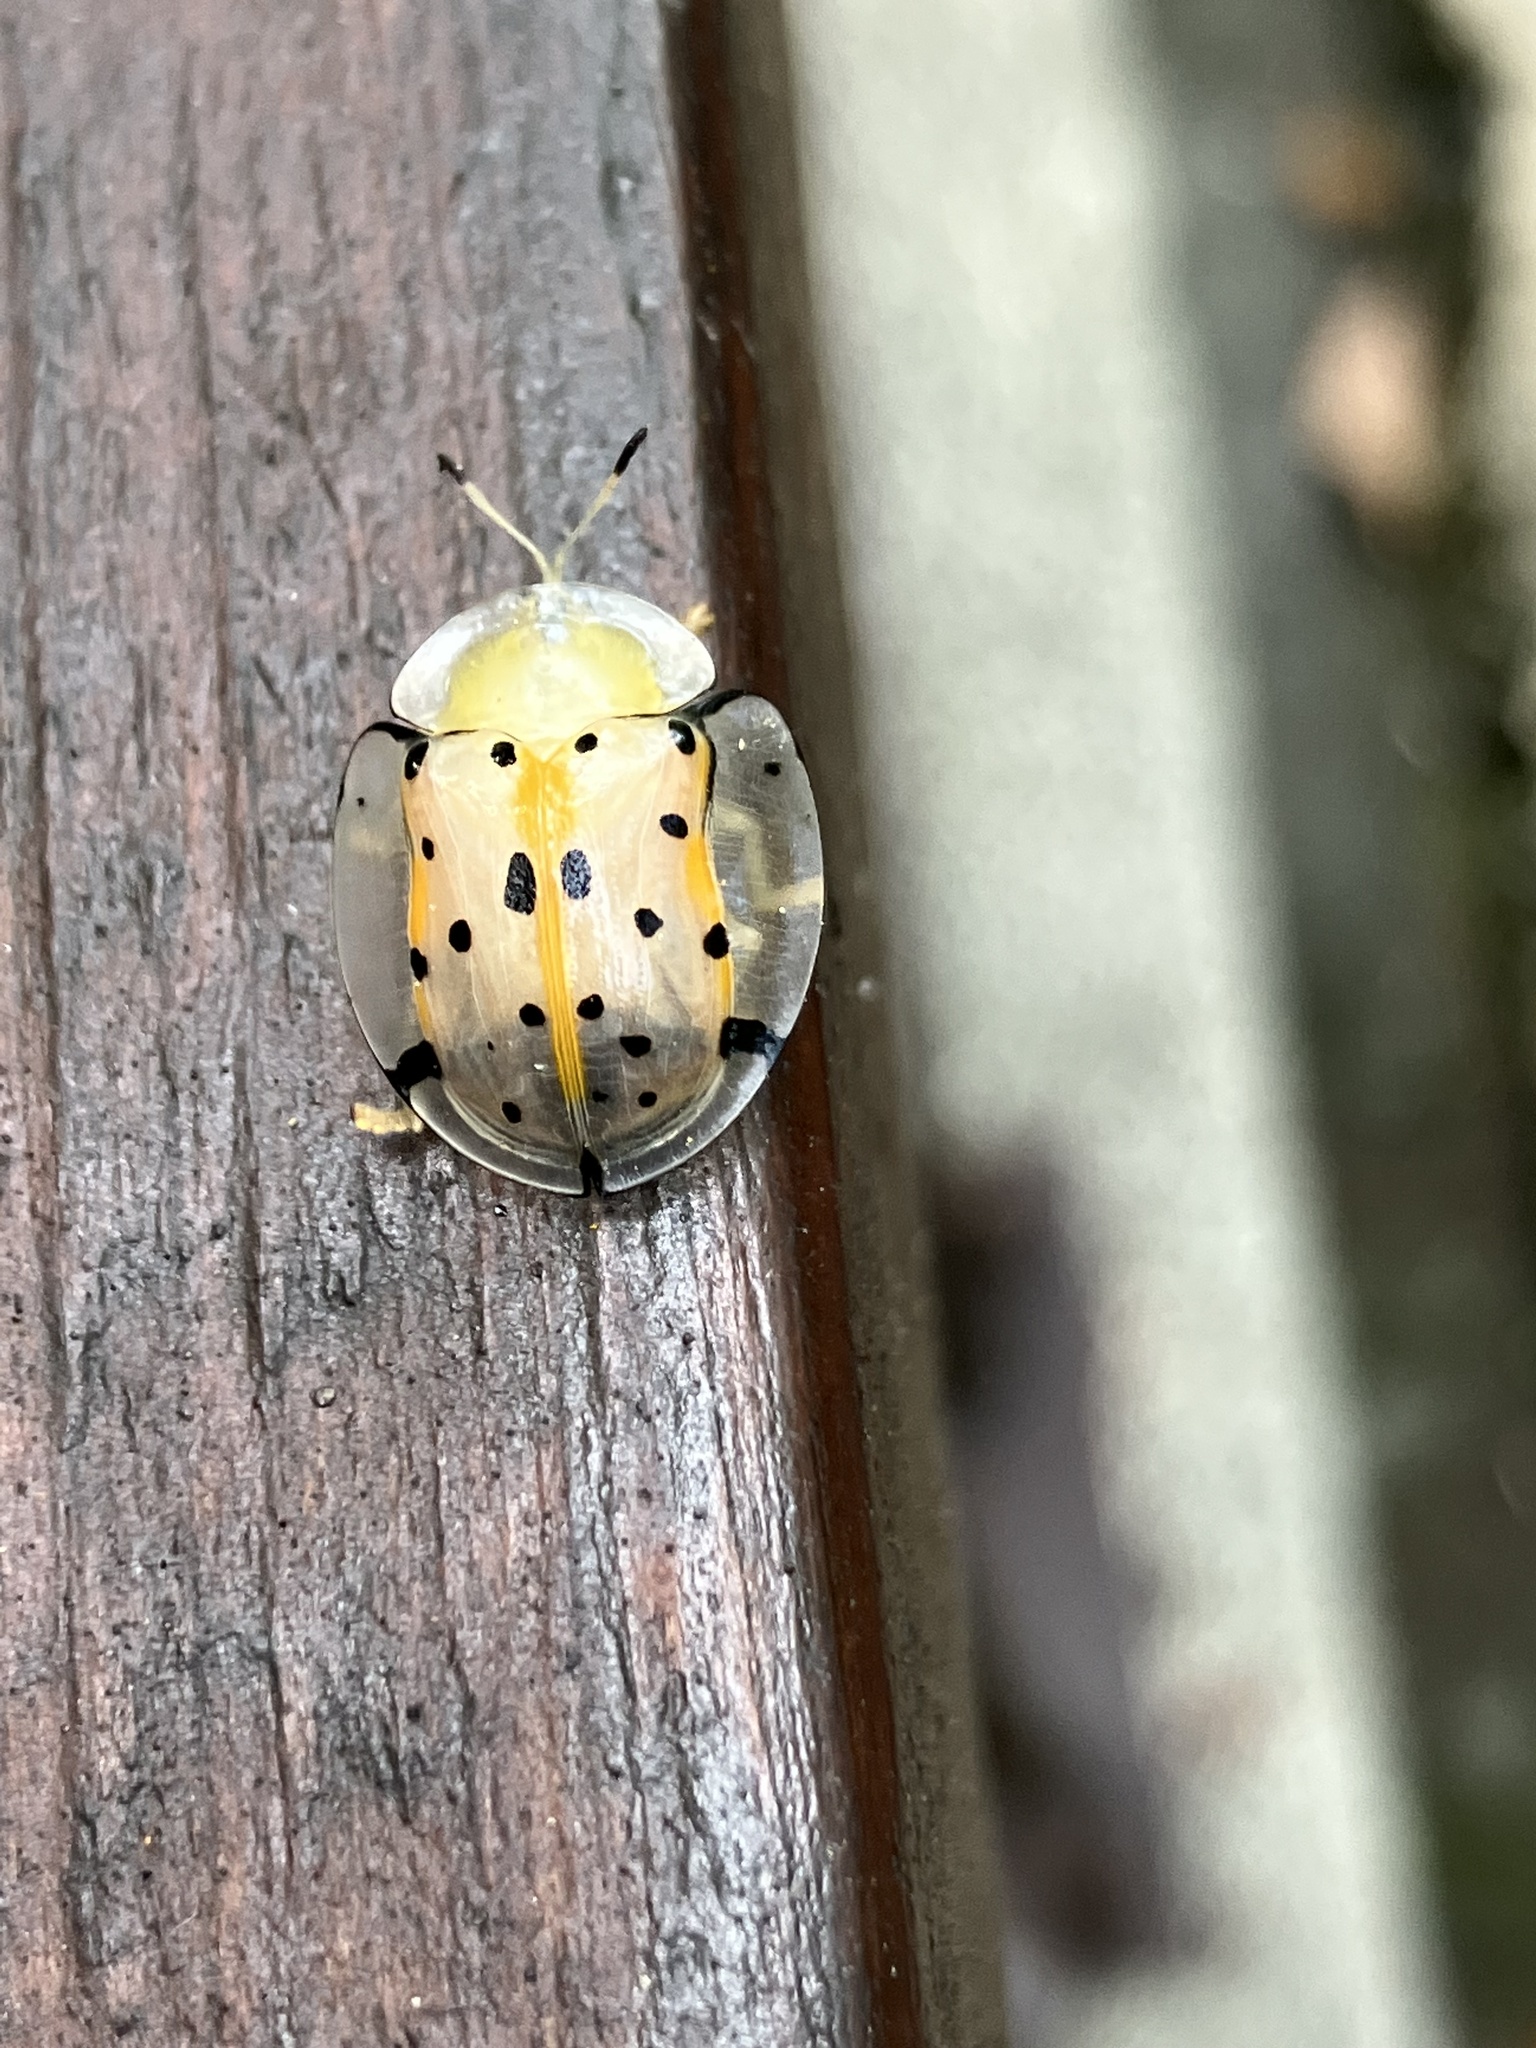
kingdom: Animalia
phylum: Arthropoda
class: Insecta
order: Coleoptera
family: Chrysomelidae
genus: Aspidimorpha
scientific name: Aspidimorpha miliaris
